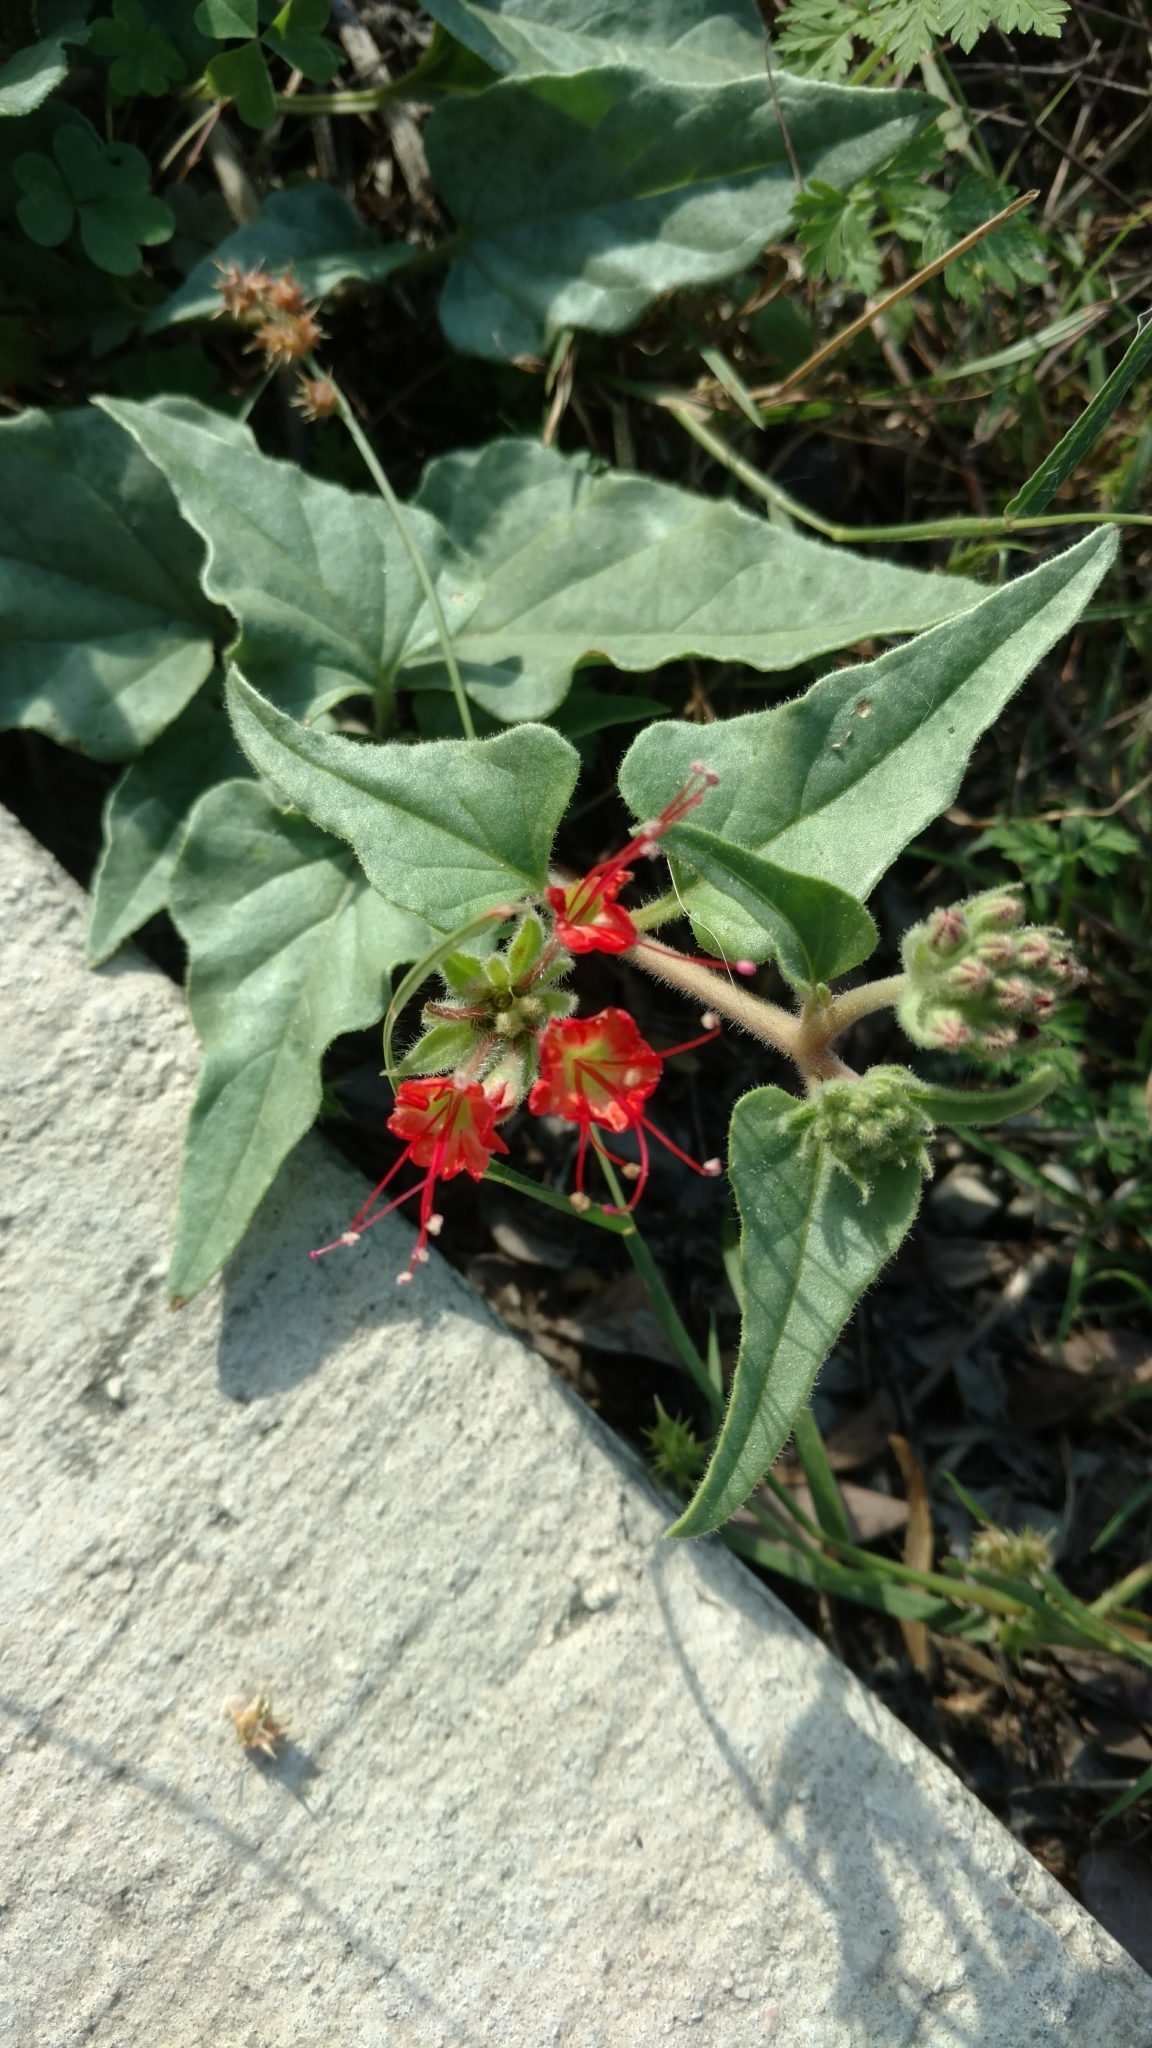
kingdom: Plantae
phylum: Tracheophyta
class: Magnoliopsida
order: Caryophyllales
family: Nyctaginaceae
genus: Nyctaginia
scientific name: Nyctaginia capitata
